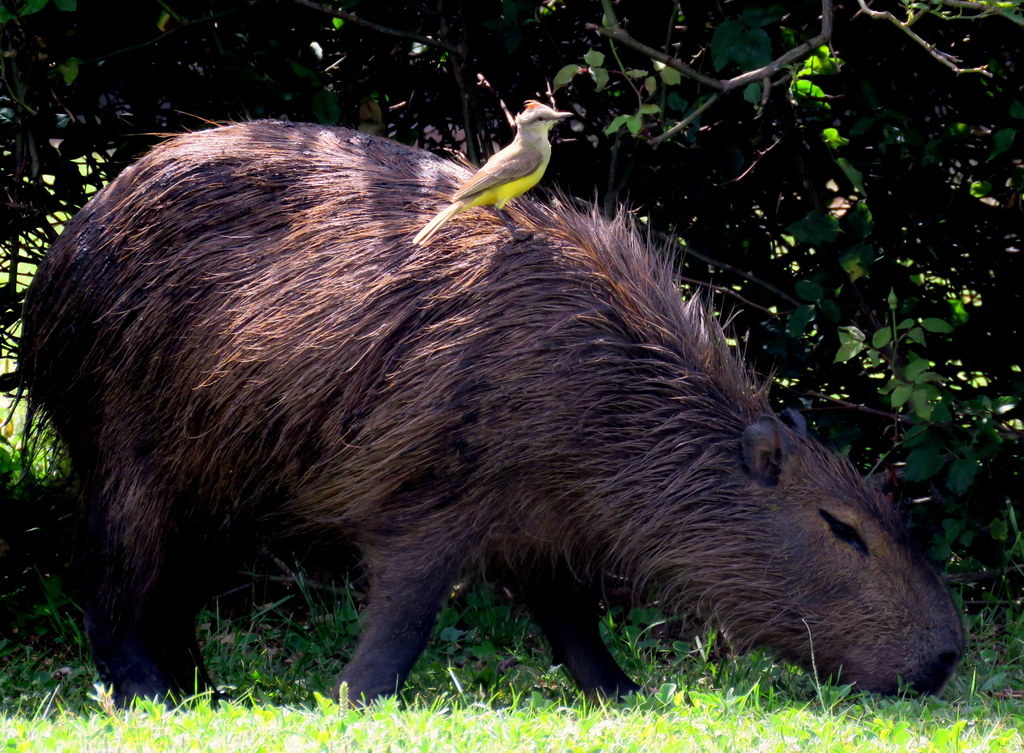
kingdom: Animalia
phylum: Chordata
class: Aves
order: Passeriformes
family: Tyrannidae
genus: Machetornis
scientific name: Machetornis rixosa
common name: Cattle tyrant
